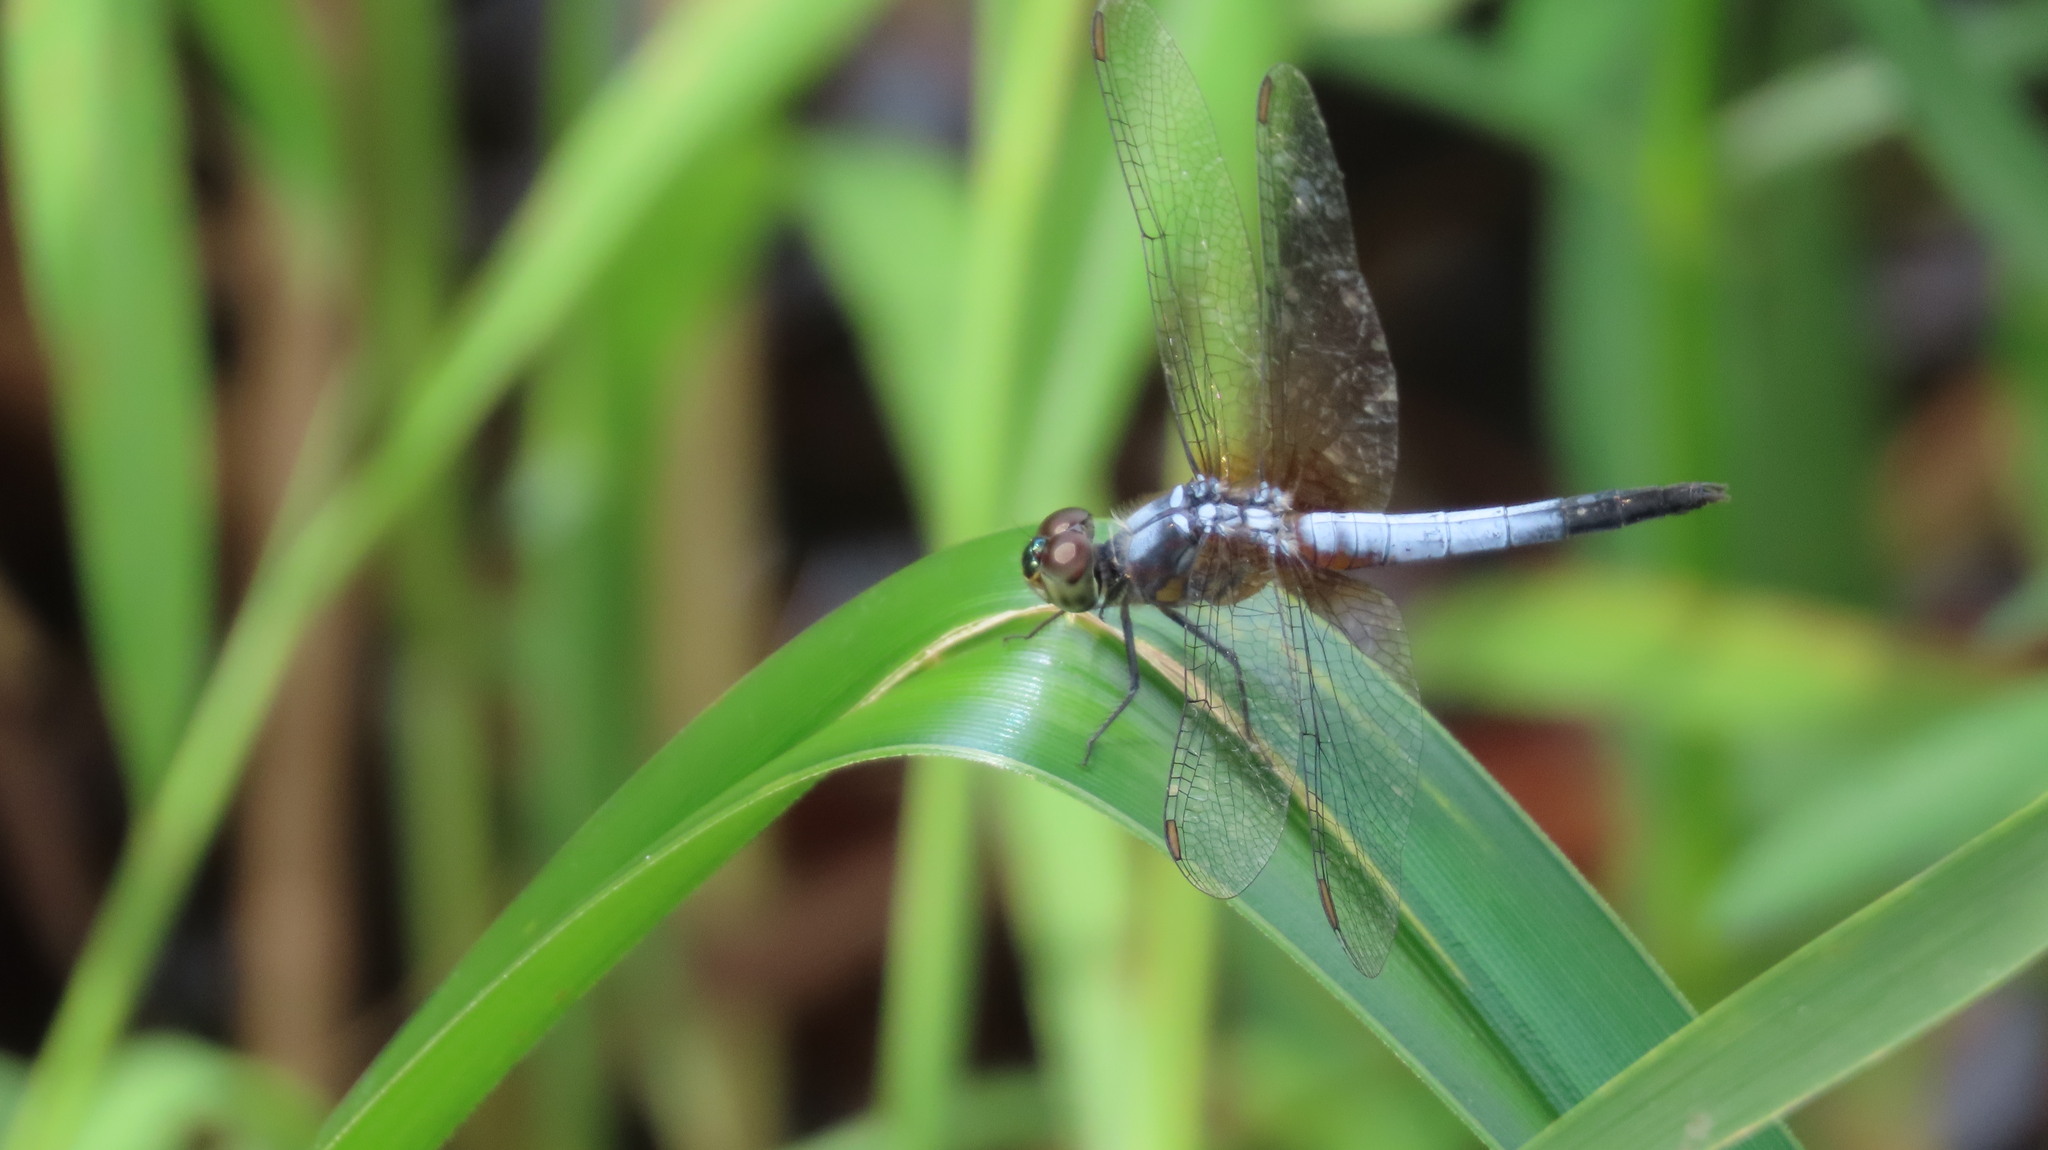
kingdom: Animalia
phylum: Arthropoda
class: Insecta
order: Odonata
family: Libellulidae
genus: Brachydiplax
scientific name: Brachydiplax chalybea
